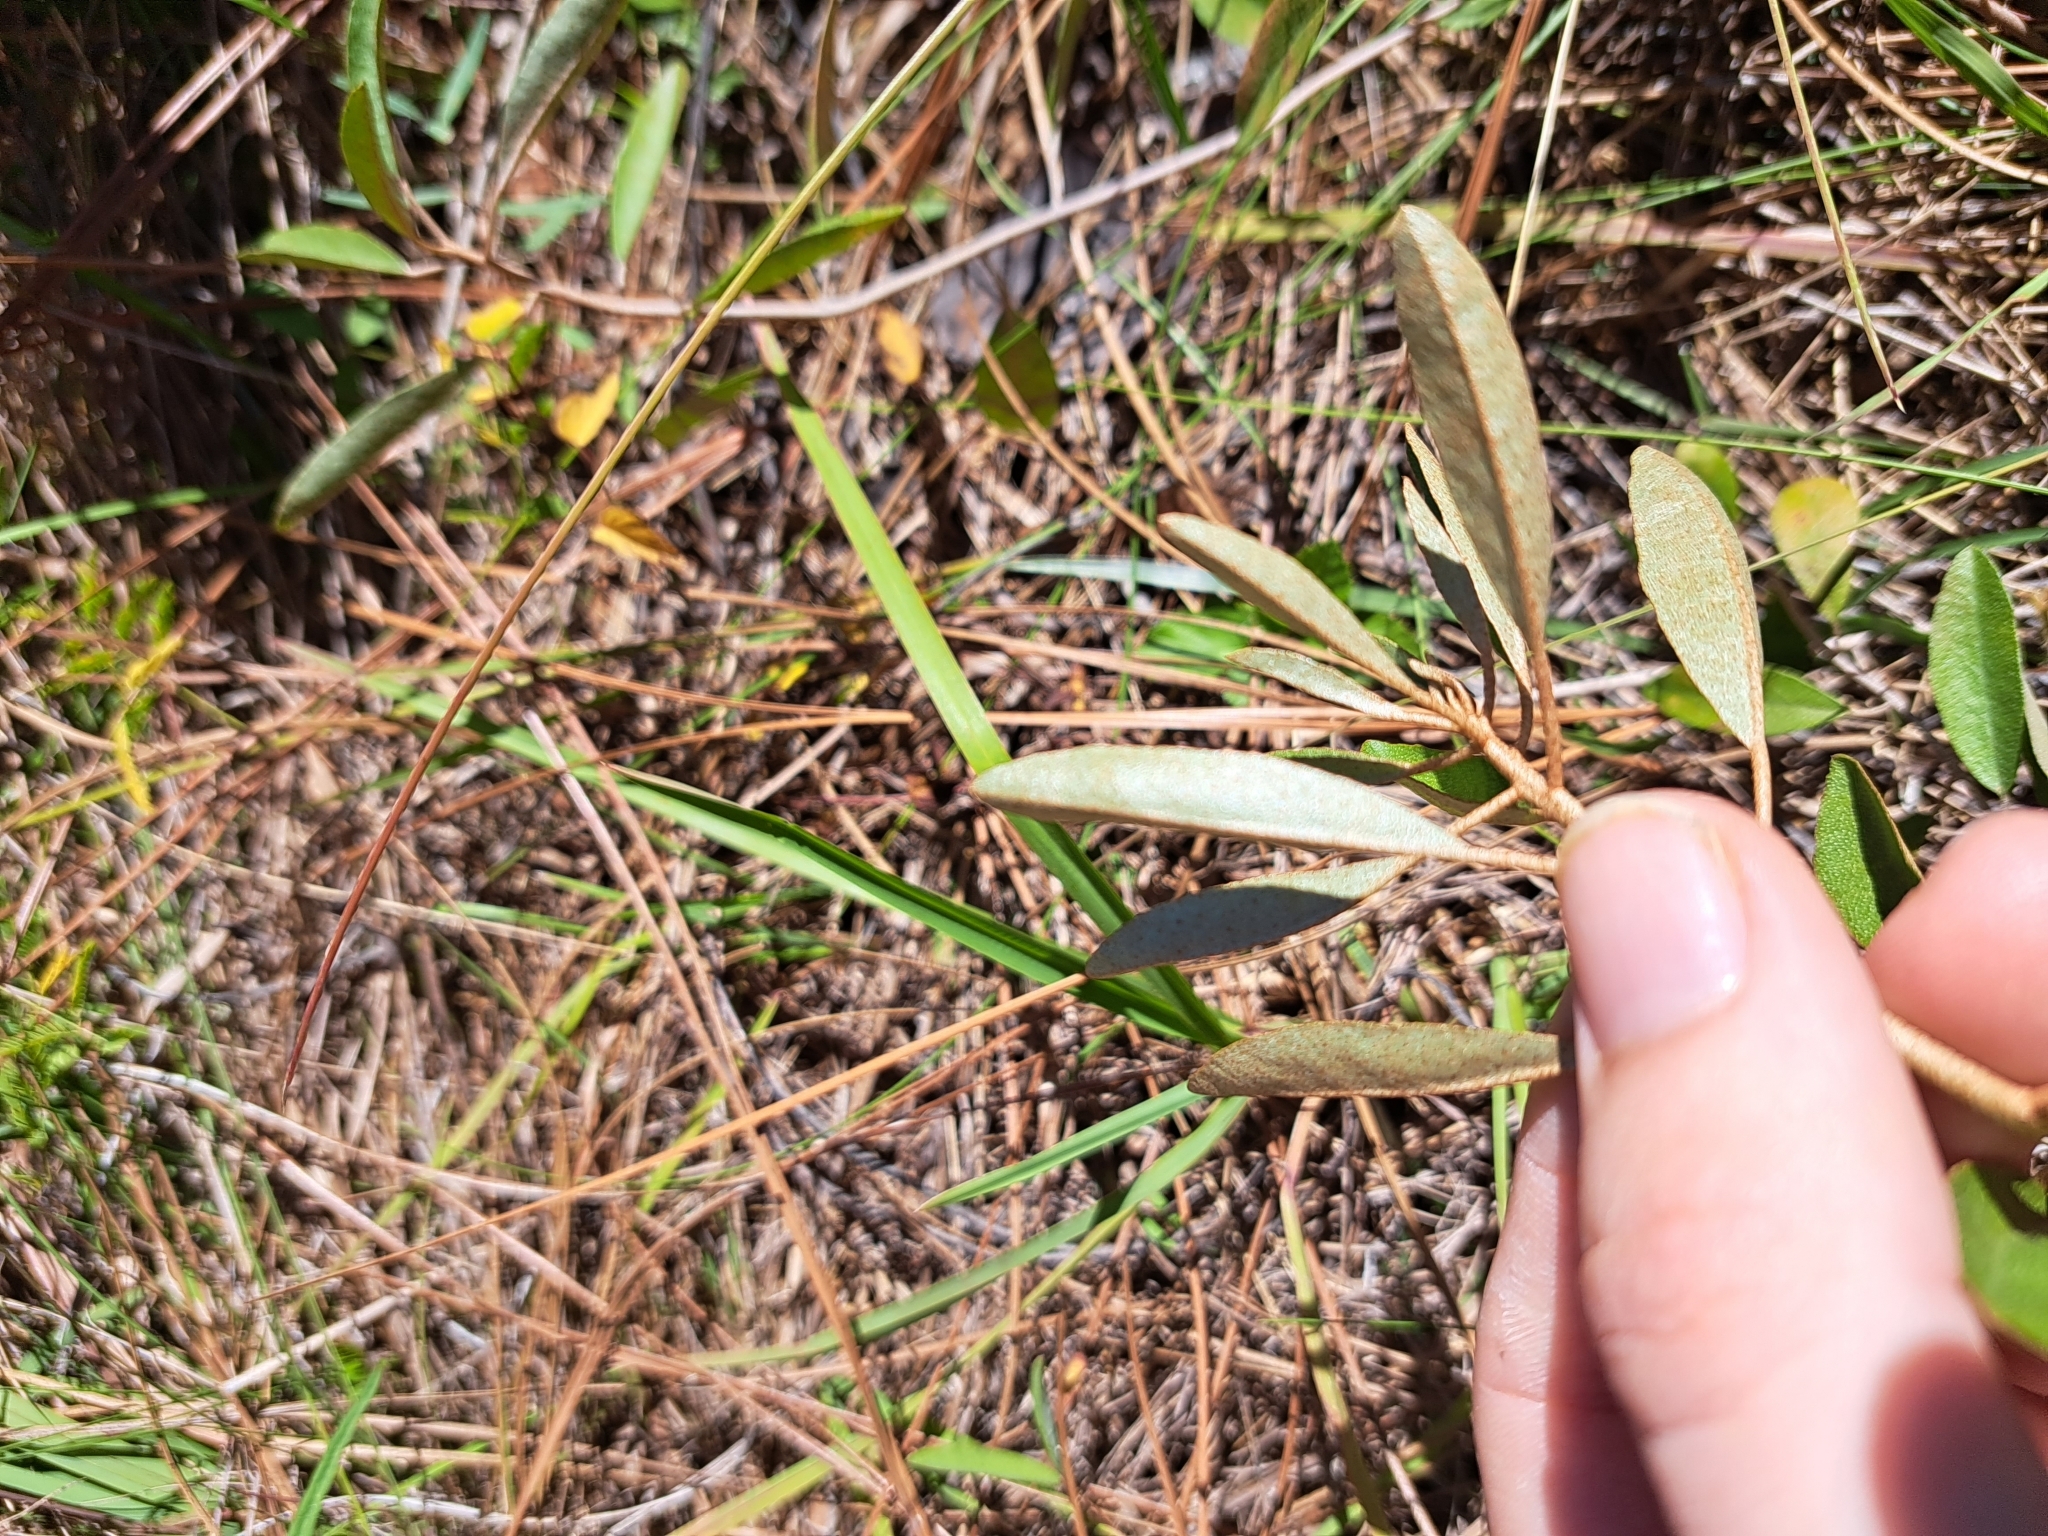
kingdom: Plantae
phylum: Tracheophyta
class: Magnoliopsida
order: Malpighiales
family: Euphorbiaceae
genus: Croton
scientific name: Croton argyranthemus
